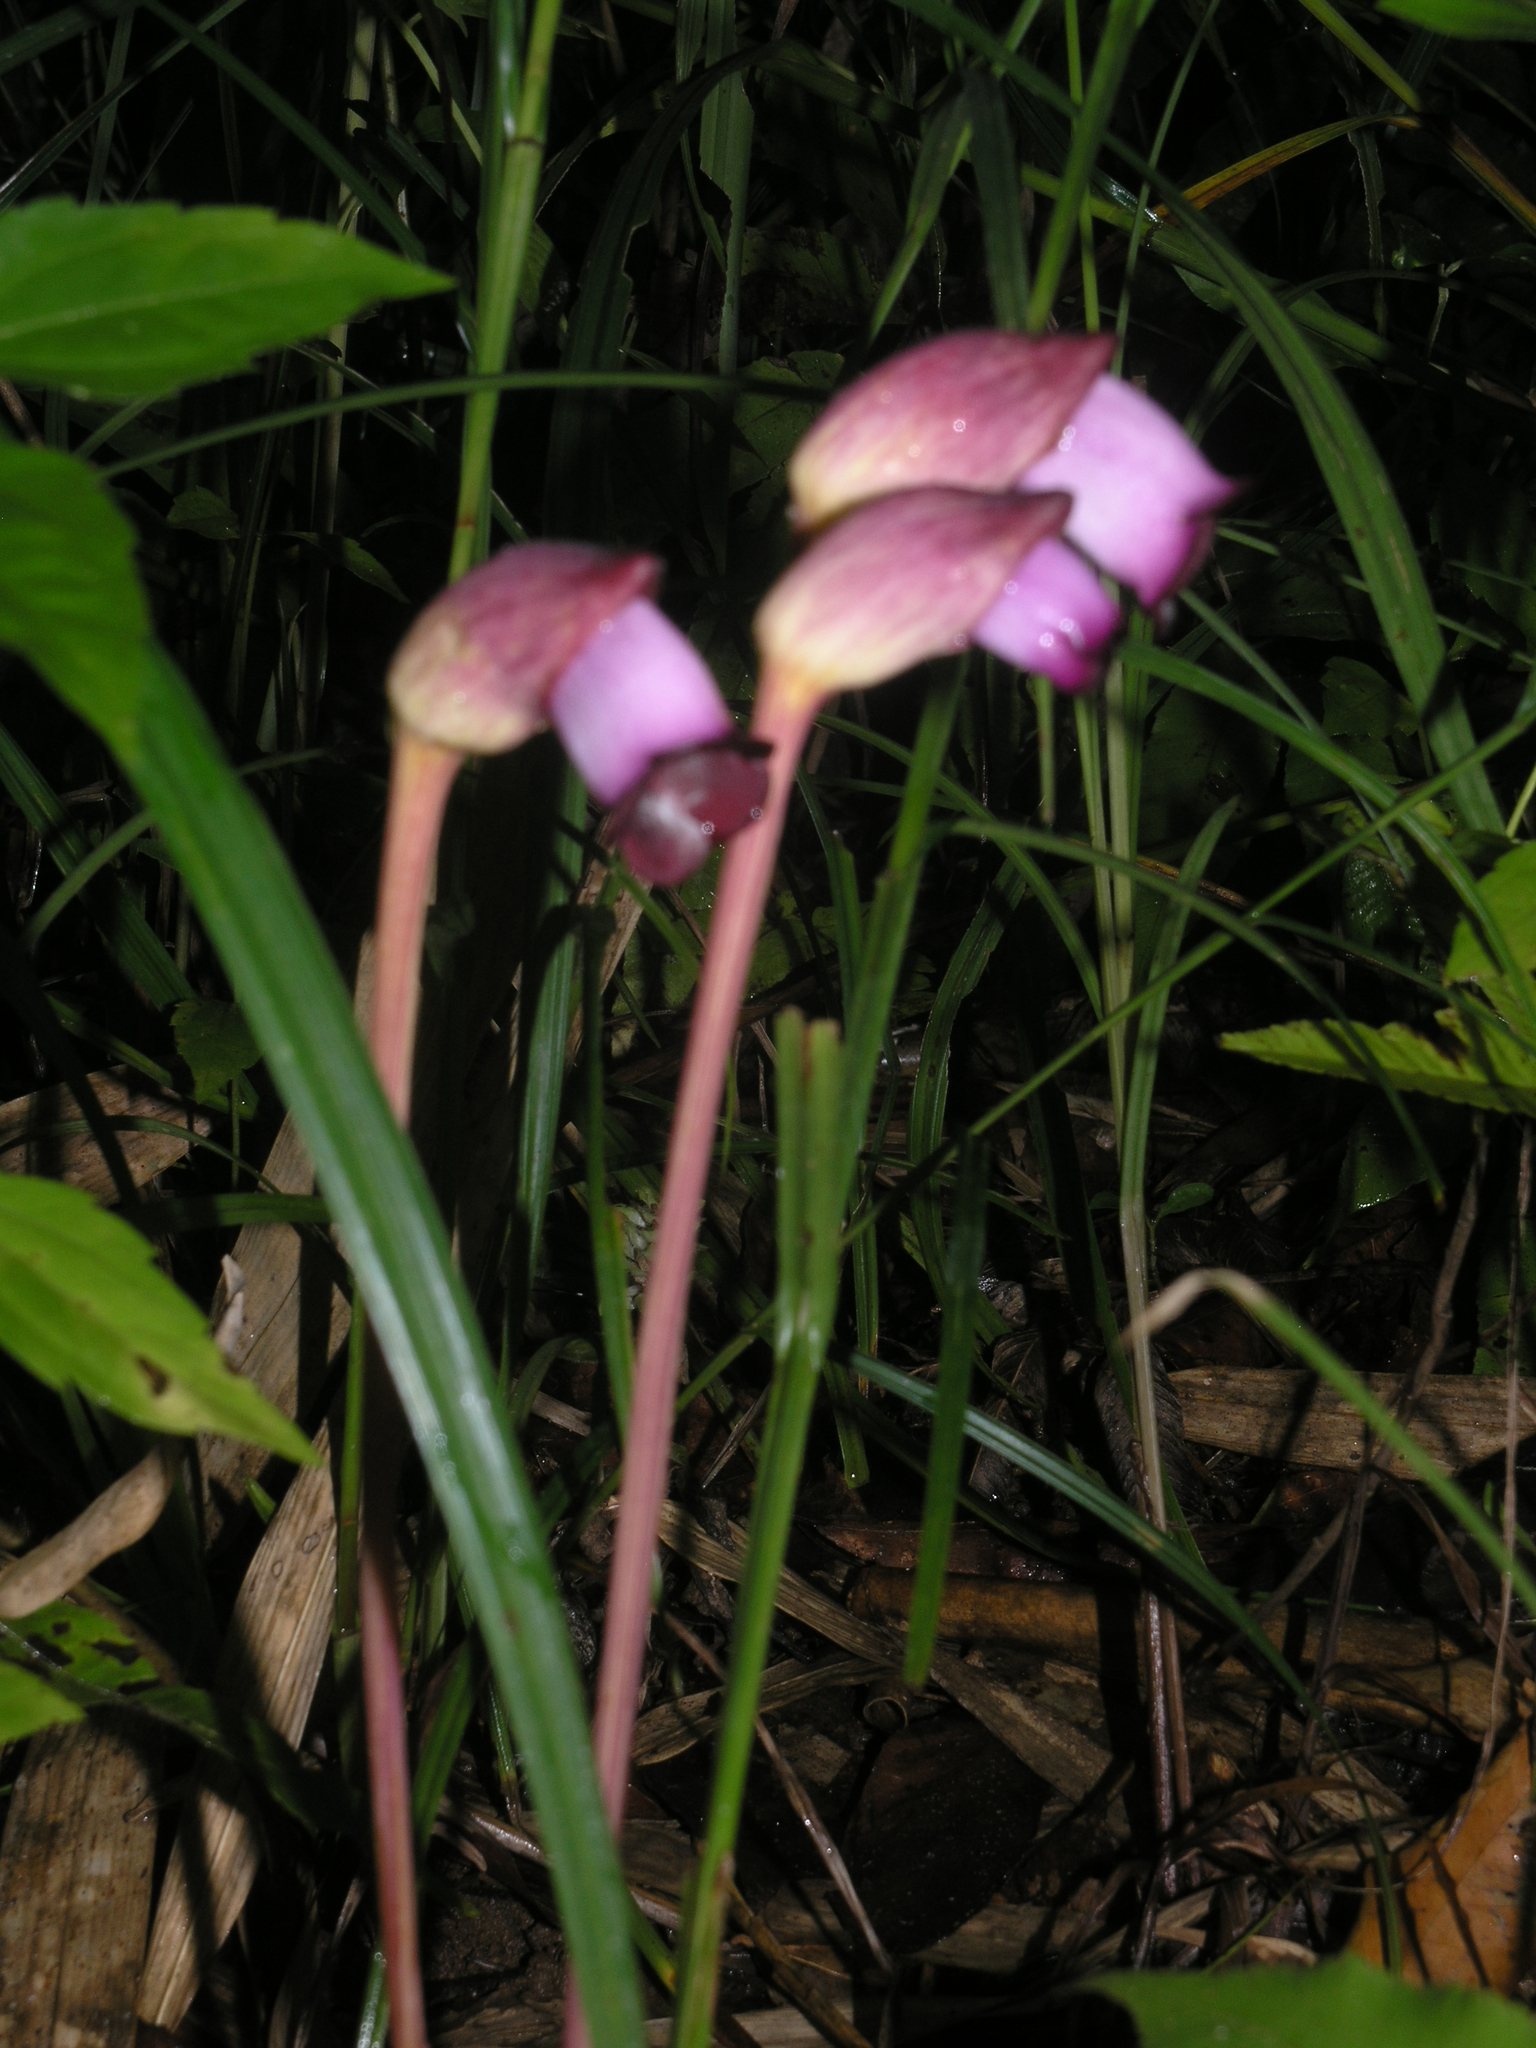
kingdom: Plantae
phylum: Tracheophyta
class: Magnoliopsida
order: Lamiales
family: Orobanchaceae
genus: Aeginetia
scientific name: Aeginetia indica
